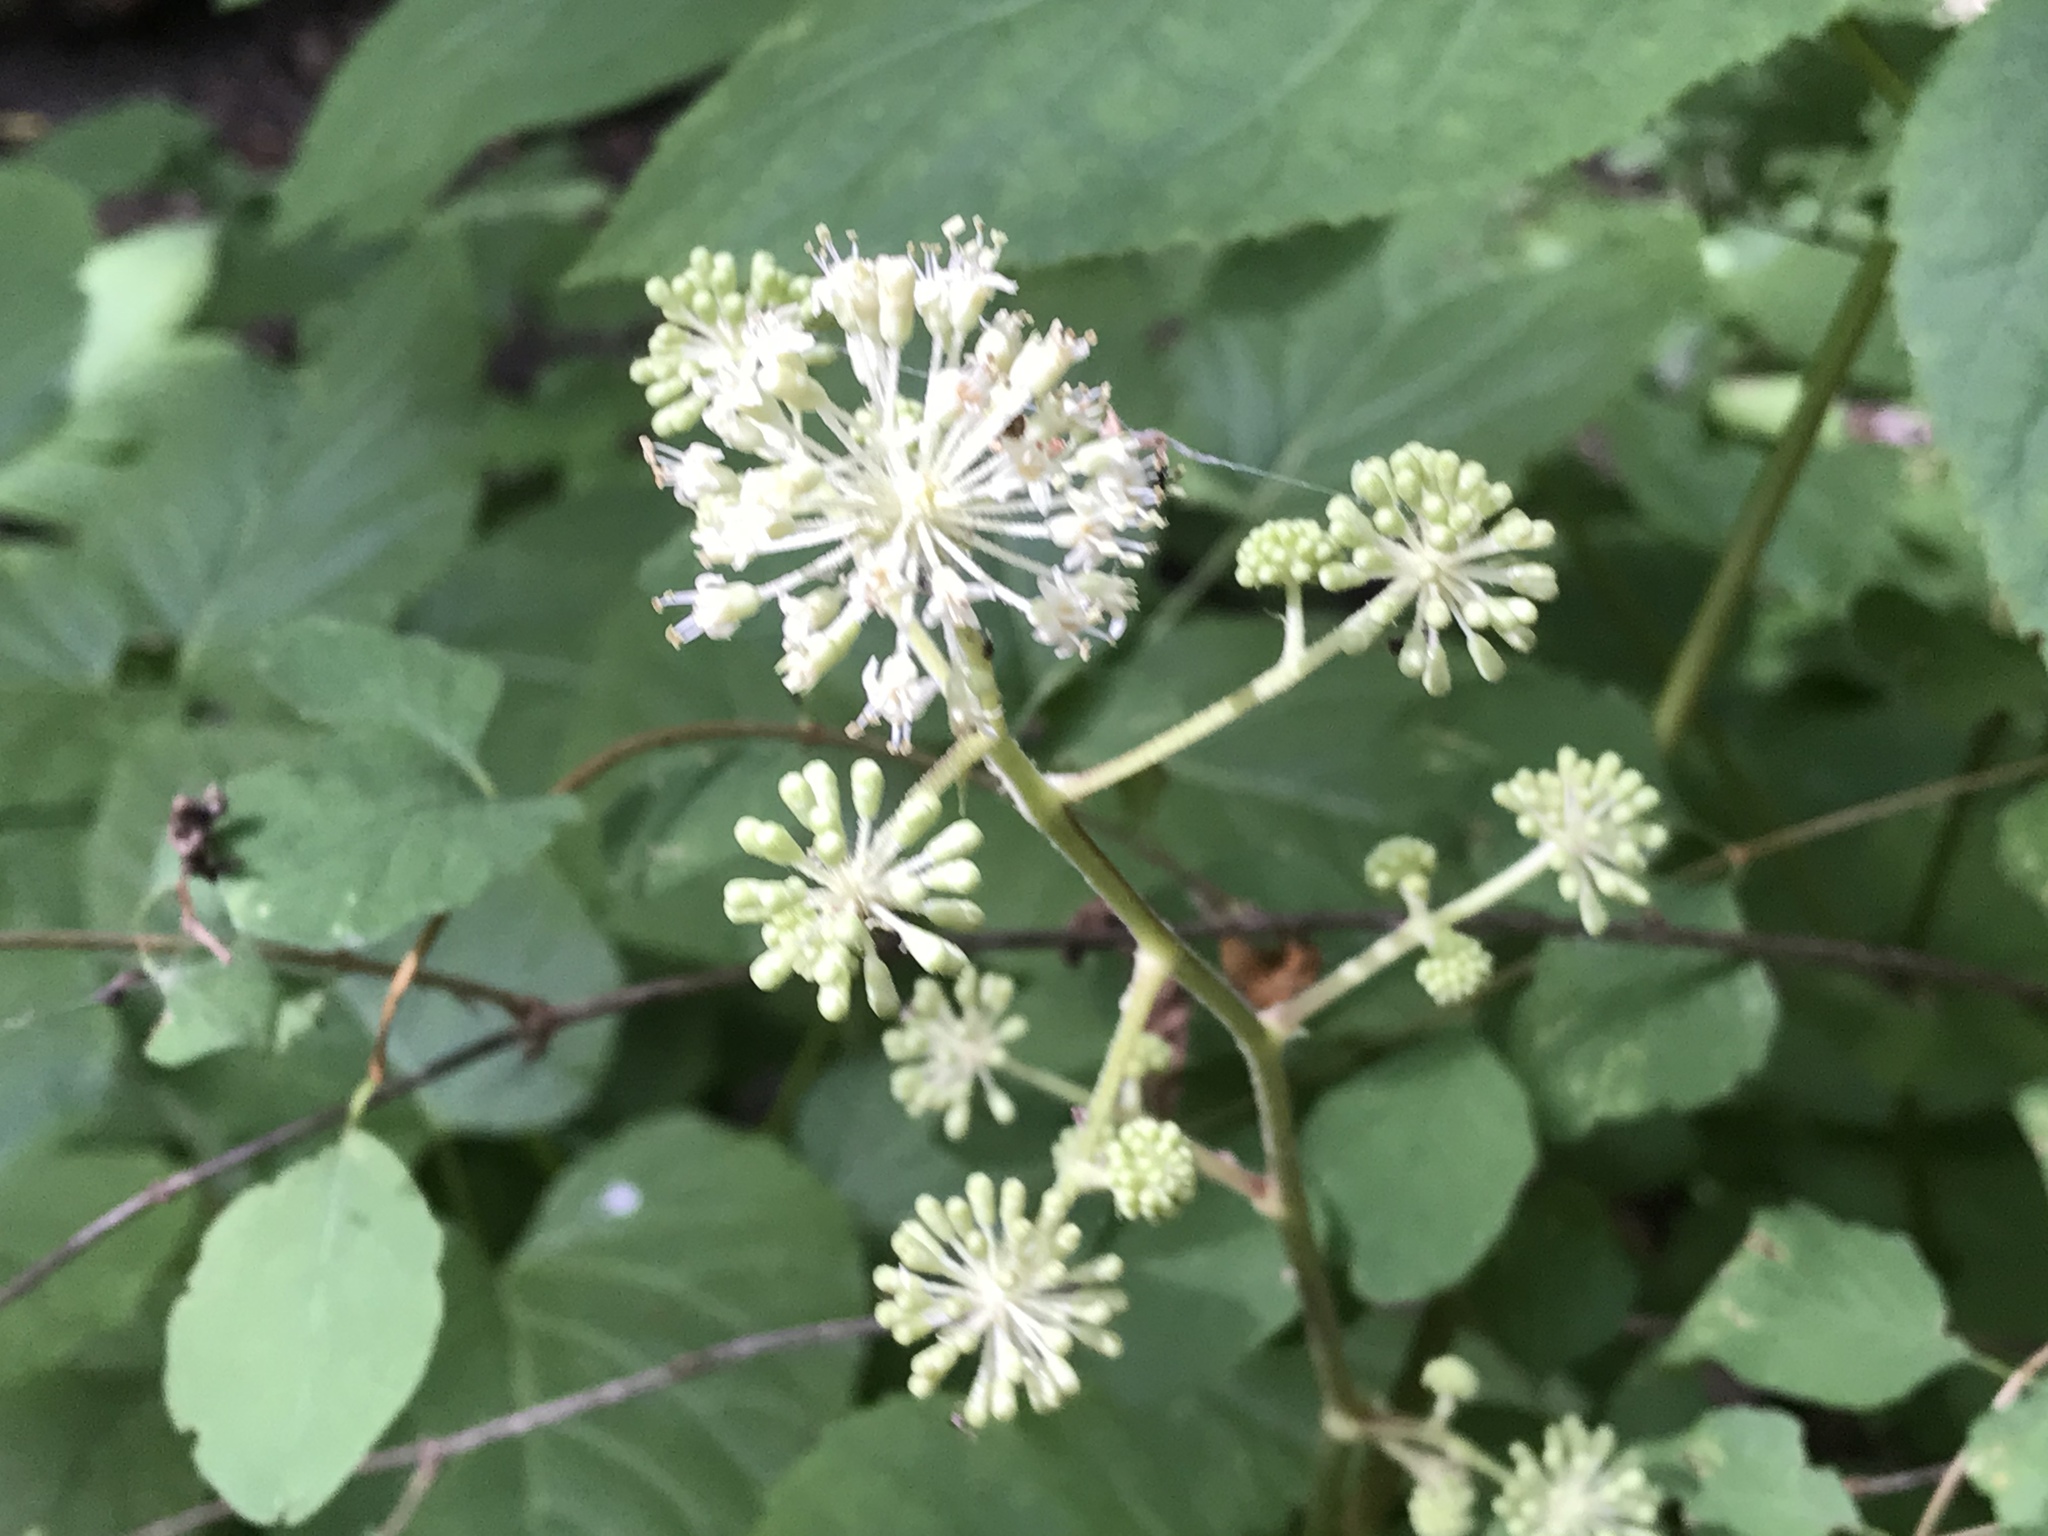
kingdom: Plantae
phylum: Tracheophyta
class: Magnoliopsida
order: Apiales
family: Araliaceae
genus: Aralia
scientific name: Aralia californica
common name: California-ginseng
